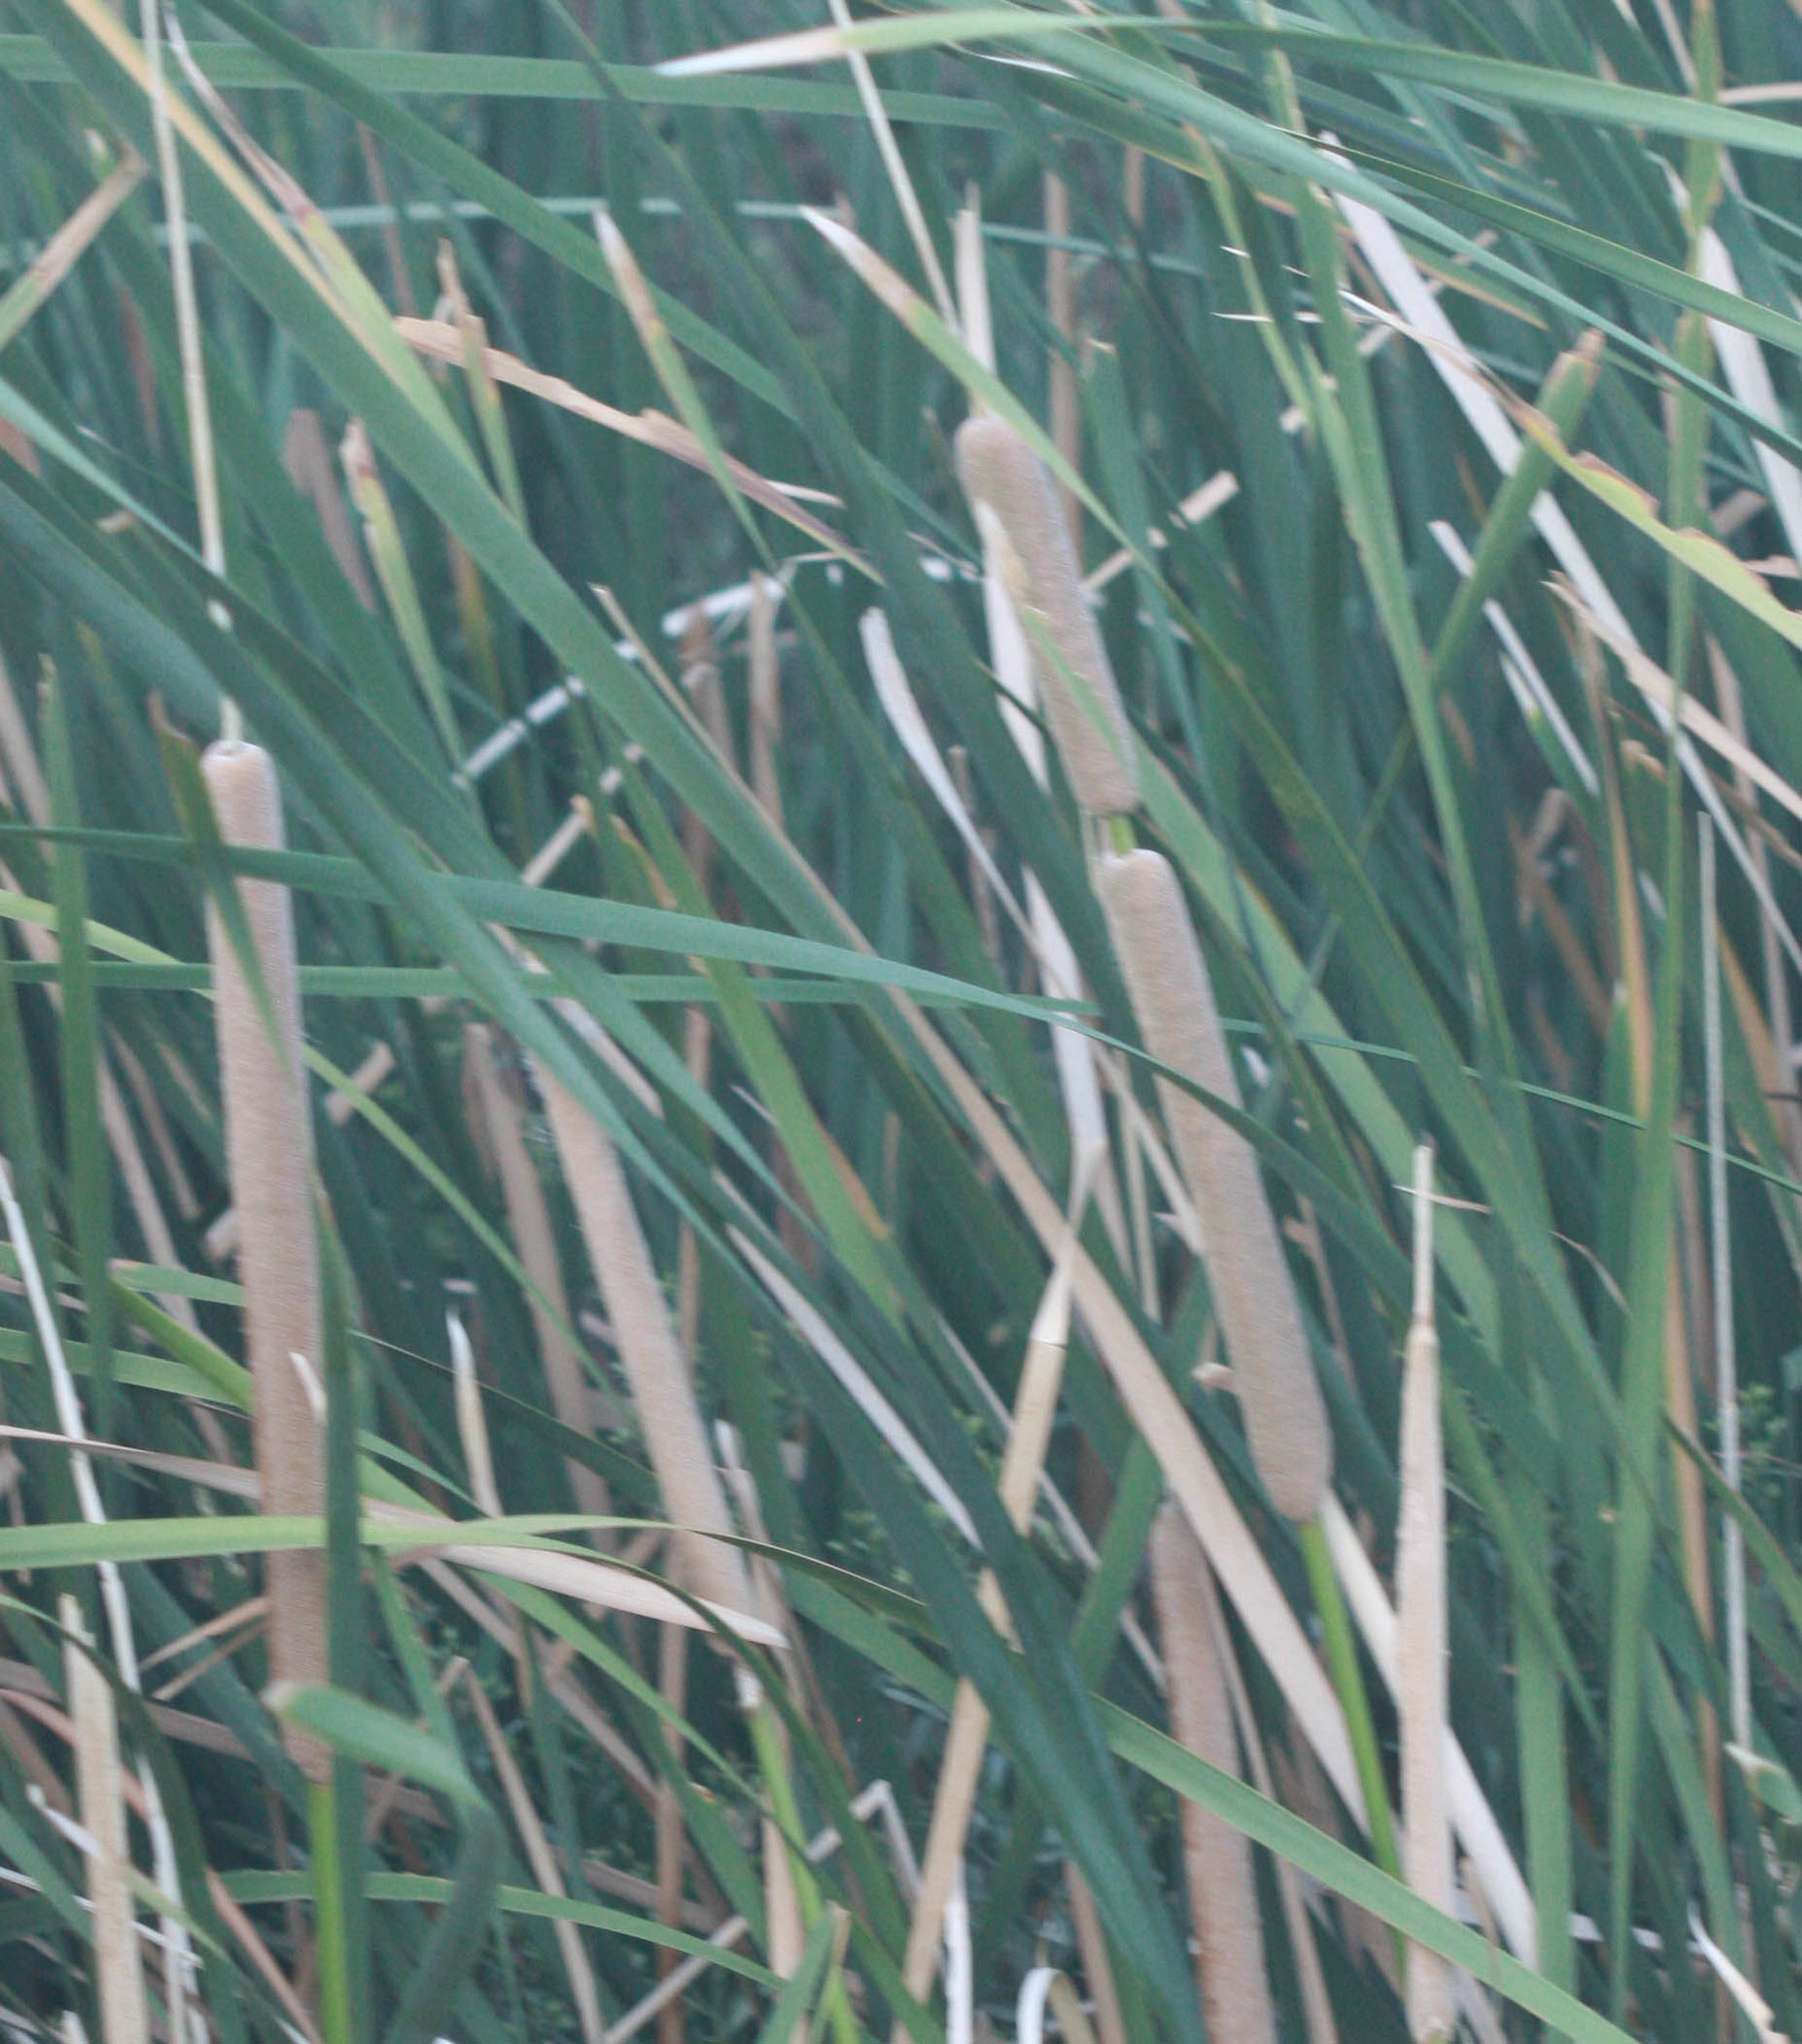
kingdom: Plantae
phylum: Tracheophyta
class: Liliopsida
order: Poales
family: Typhaceae
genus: Typha
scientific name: Typha domingensis
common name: Southern cattail
